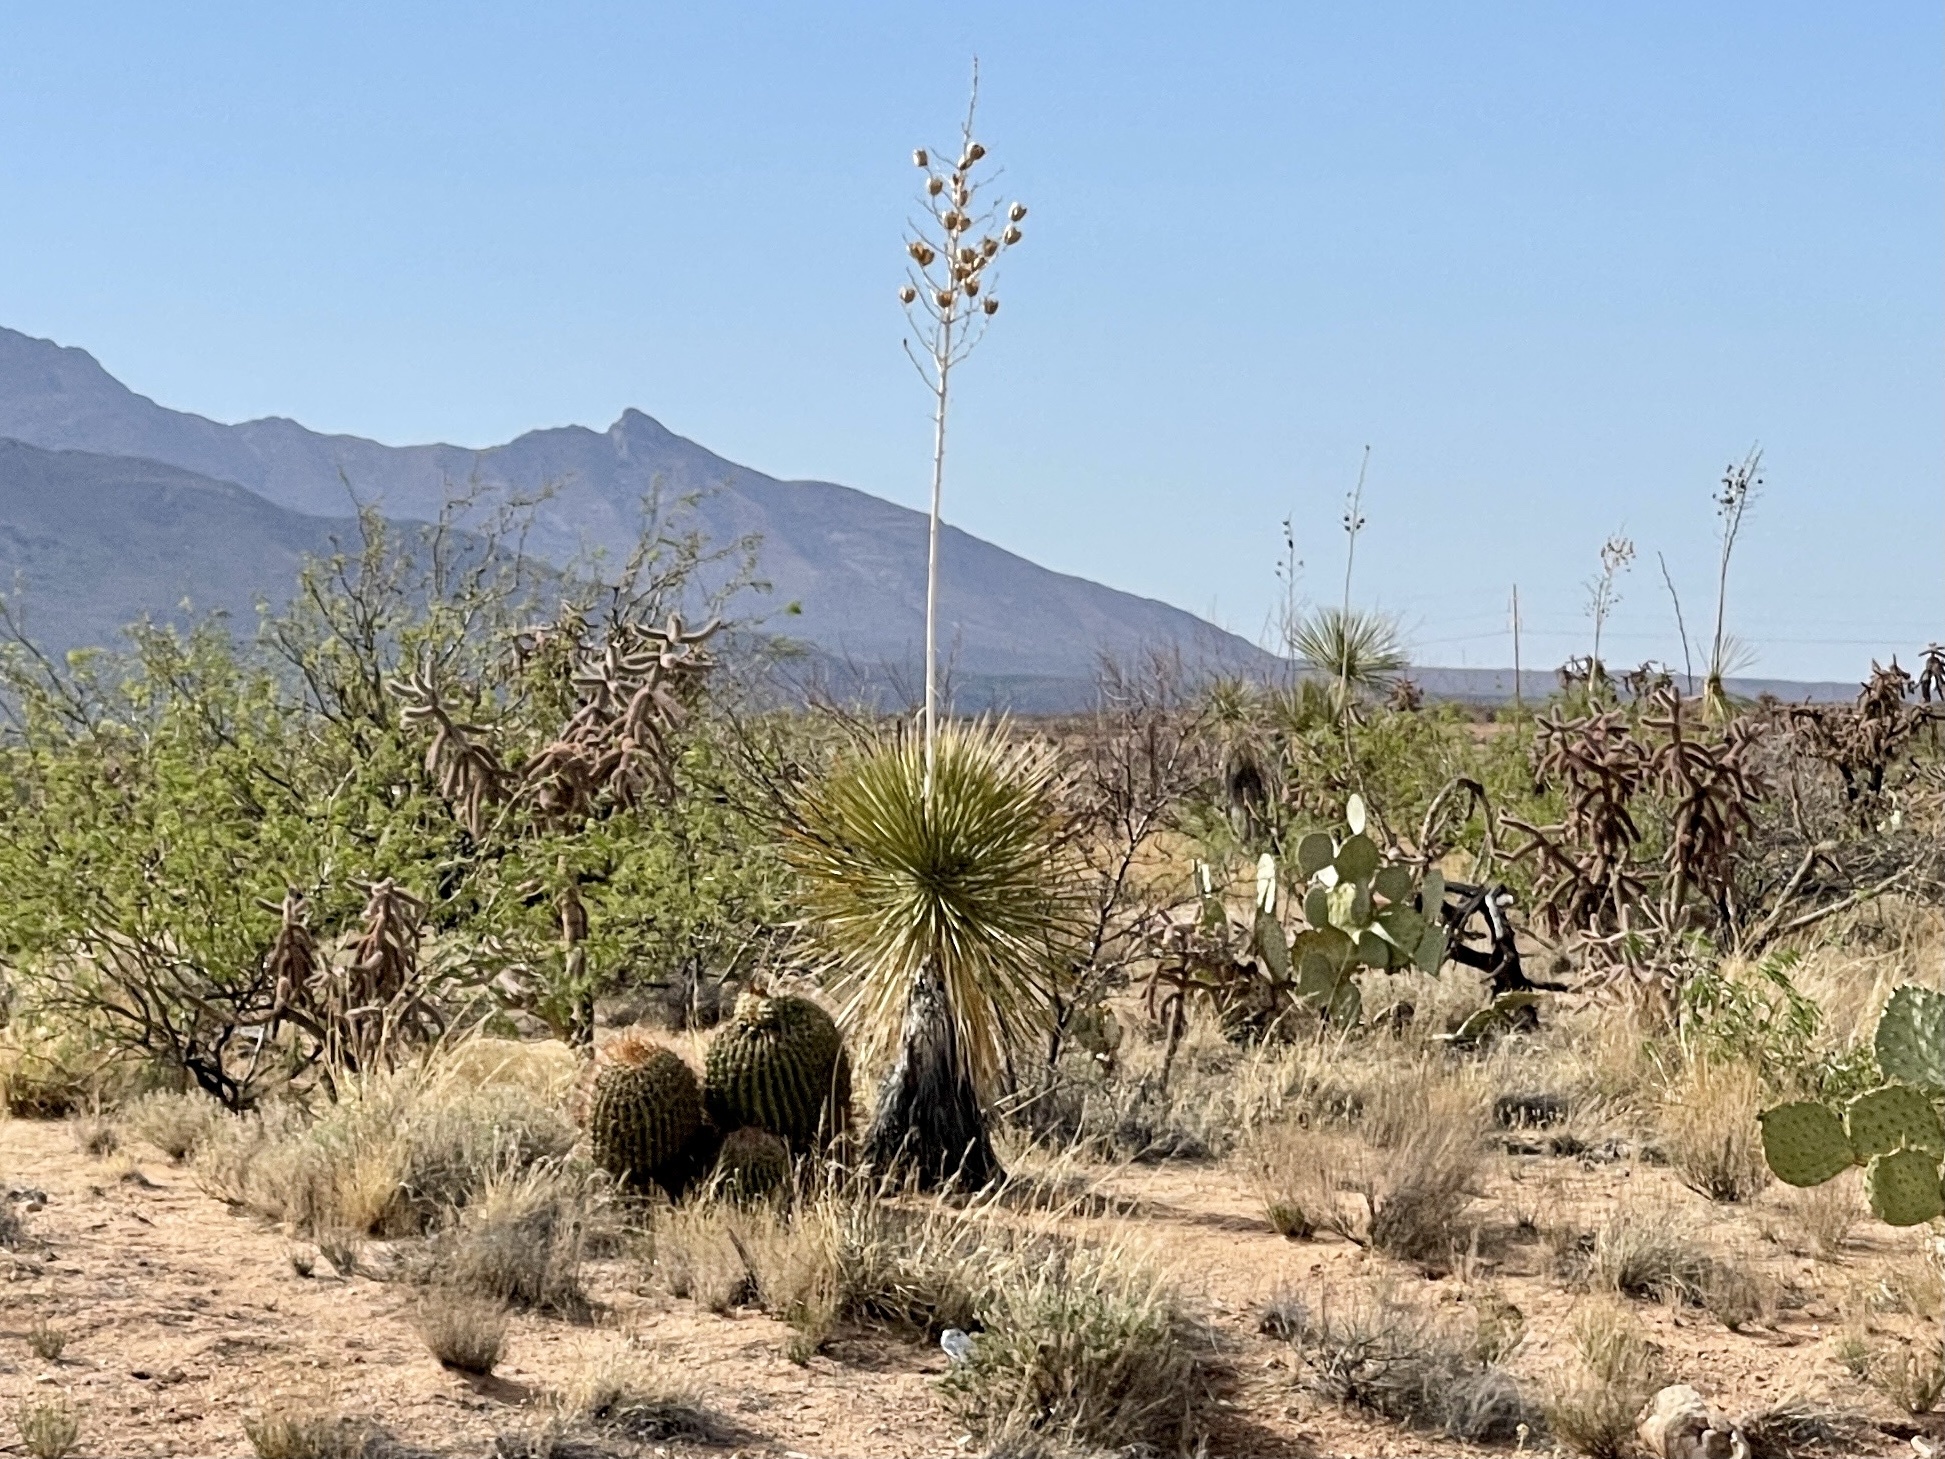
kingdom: Plantae
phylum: Tracheophyta
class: Liliopsida
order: Asparagales
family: Asparagaceae
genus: Yucca
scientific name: Yucca elata
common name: Palmella
